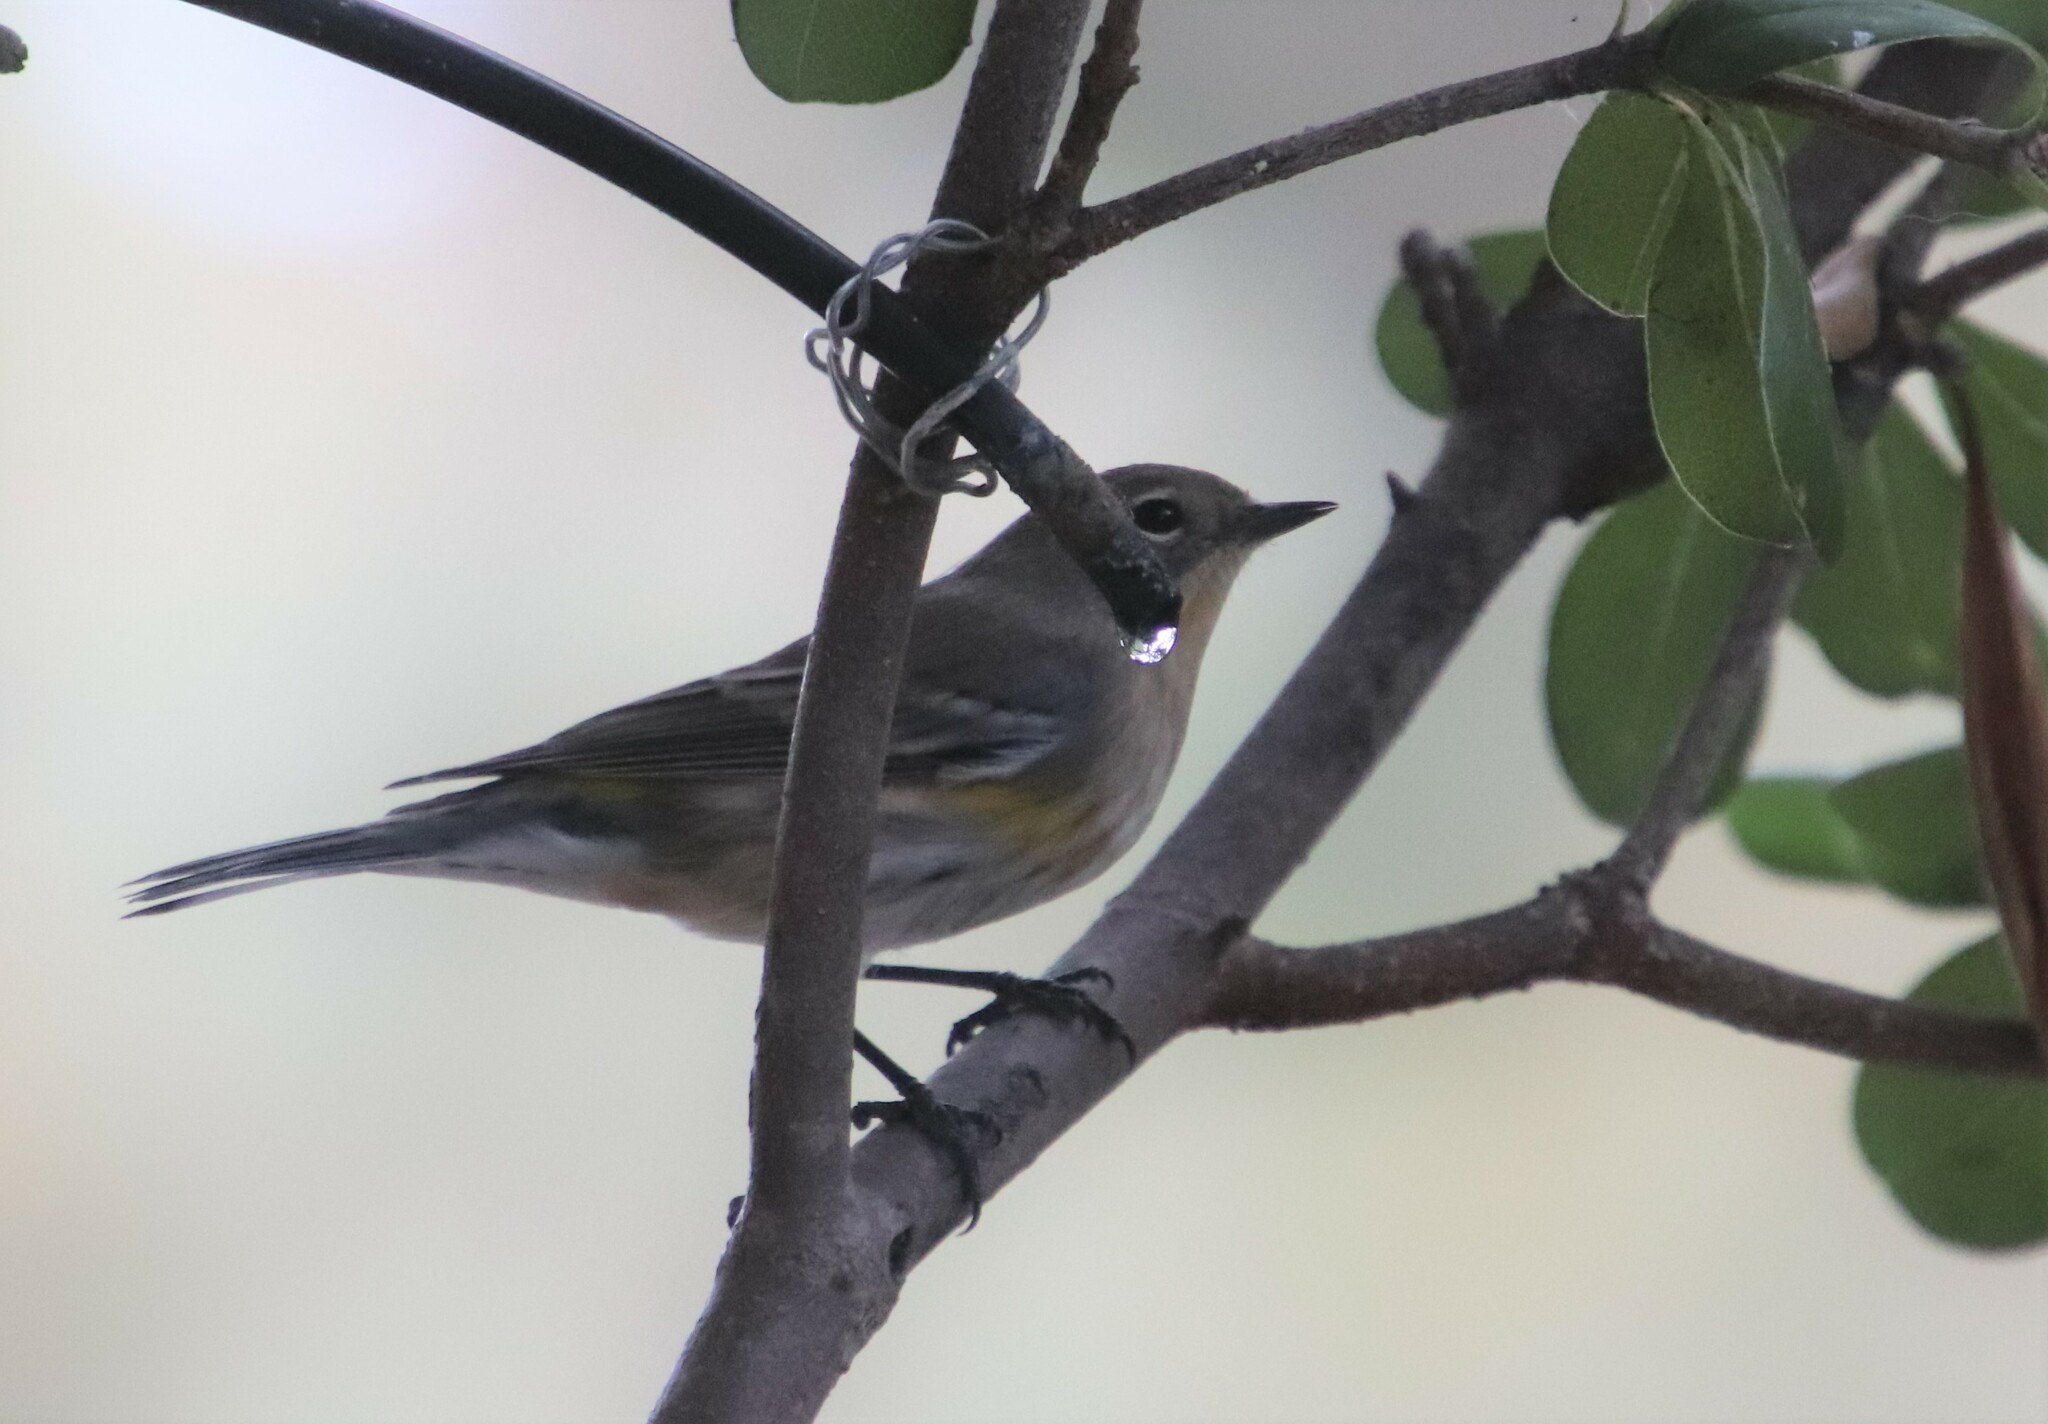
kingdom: Animalia
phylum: Chordata
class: Aves
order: Passeriformes
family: Parulidae
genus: Setophaga
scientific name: Setophaga auduboni
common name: Audubon's warbler
